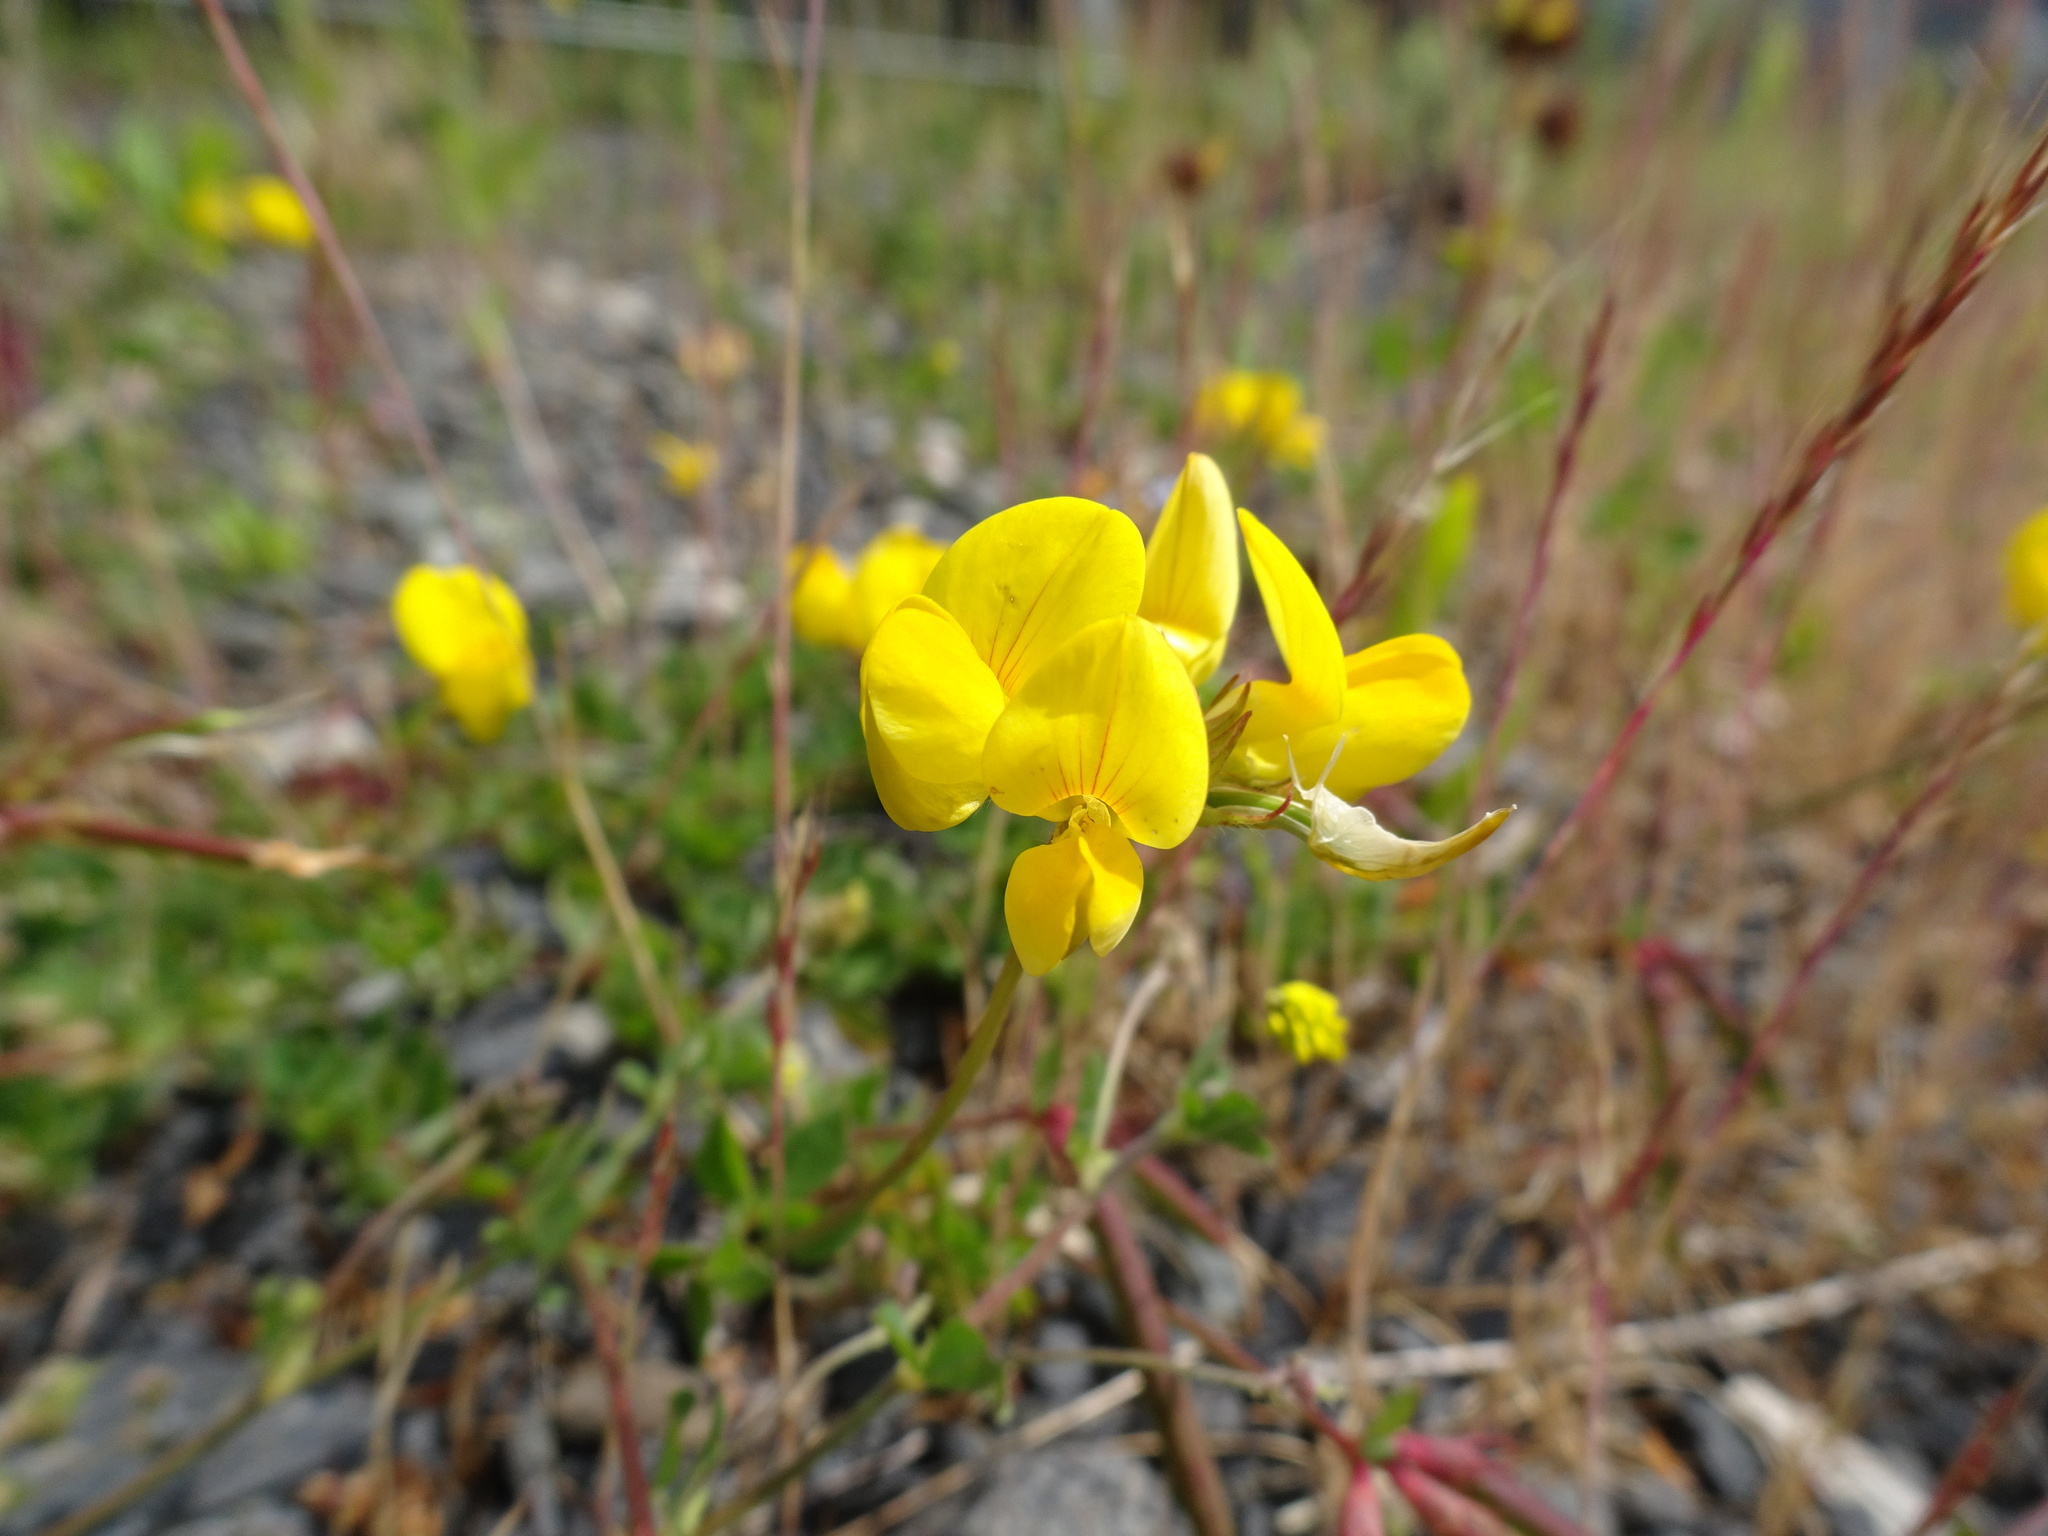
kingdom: Plantae
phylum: Tracheophyta
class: Magnoliopsida
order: Fabales
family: Fabaceae
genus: Lotus
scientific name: Lotus corniculatus
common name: Common bird's-foot-trefoil
